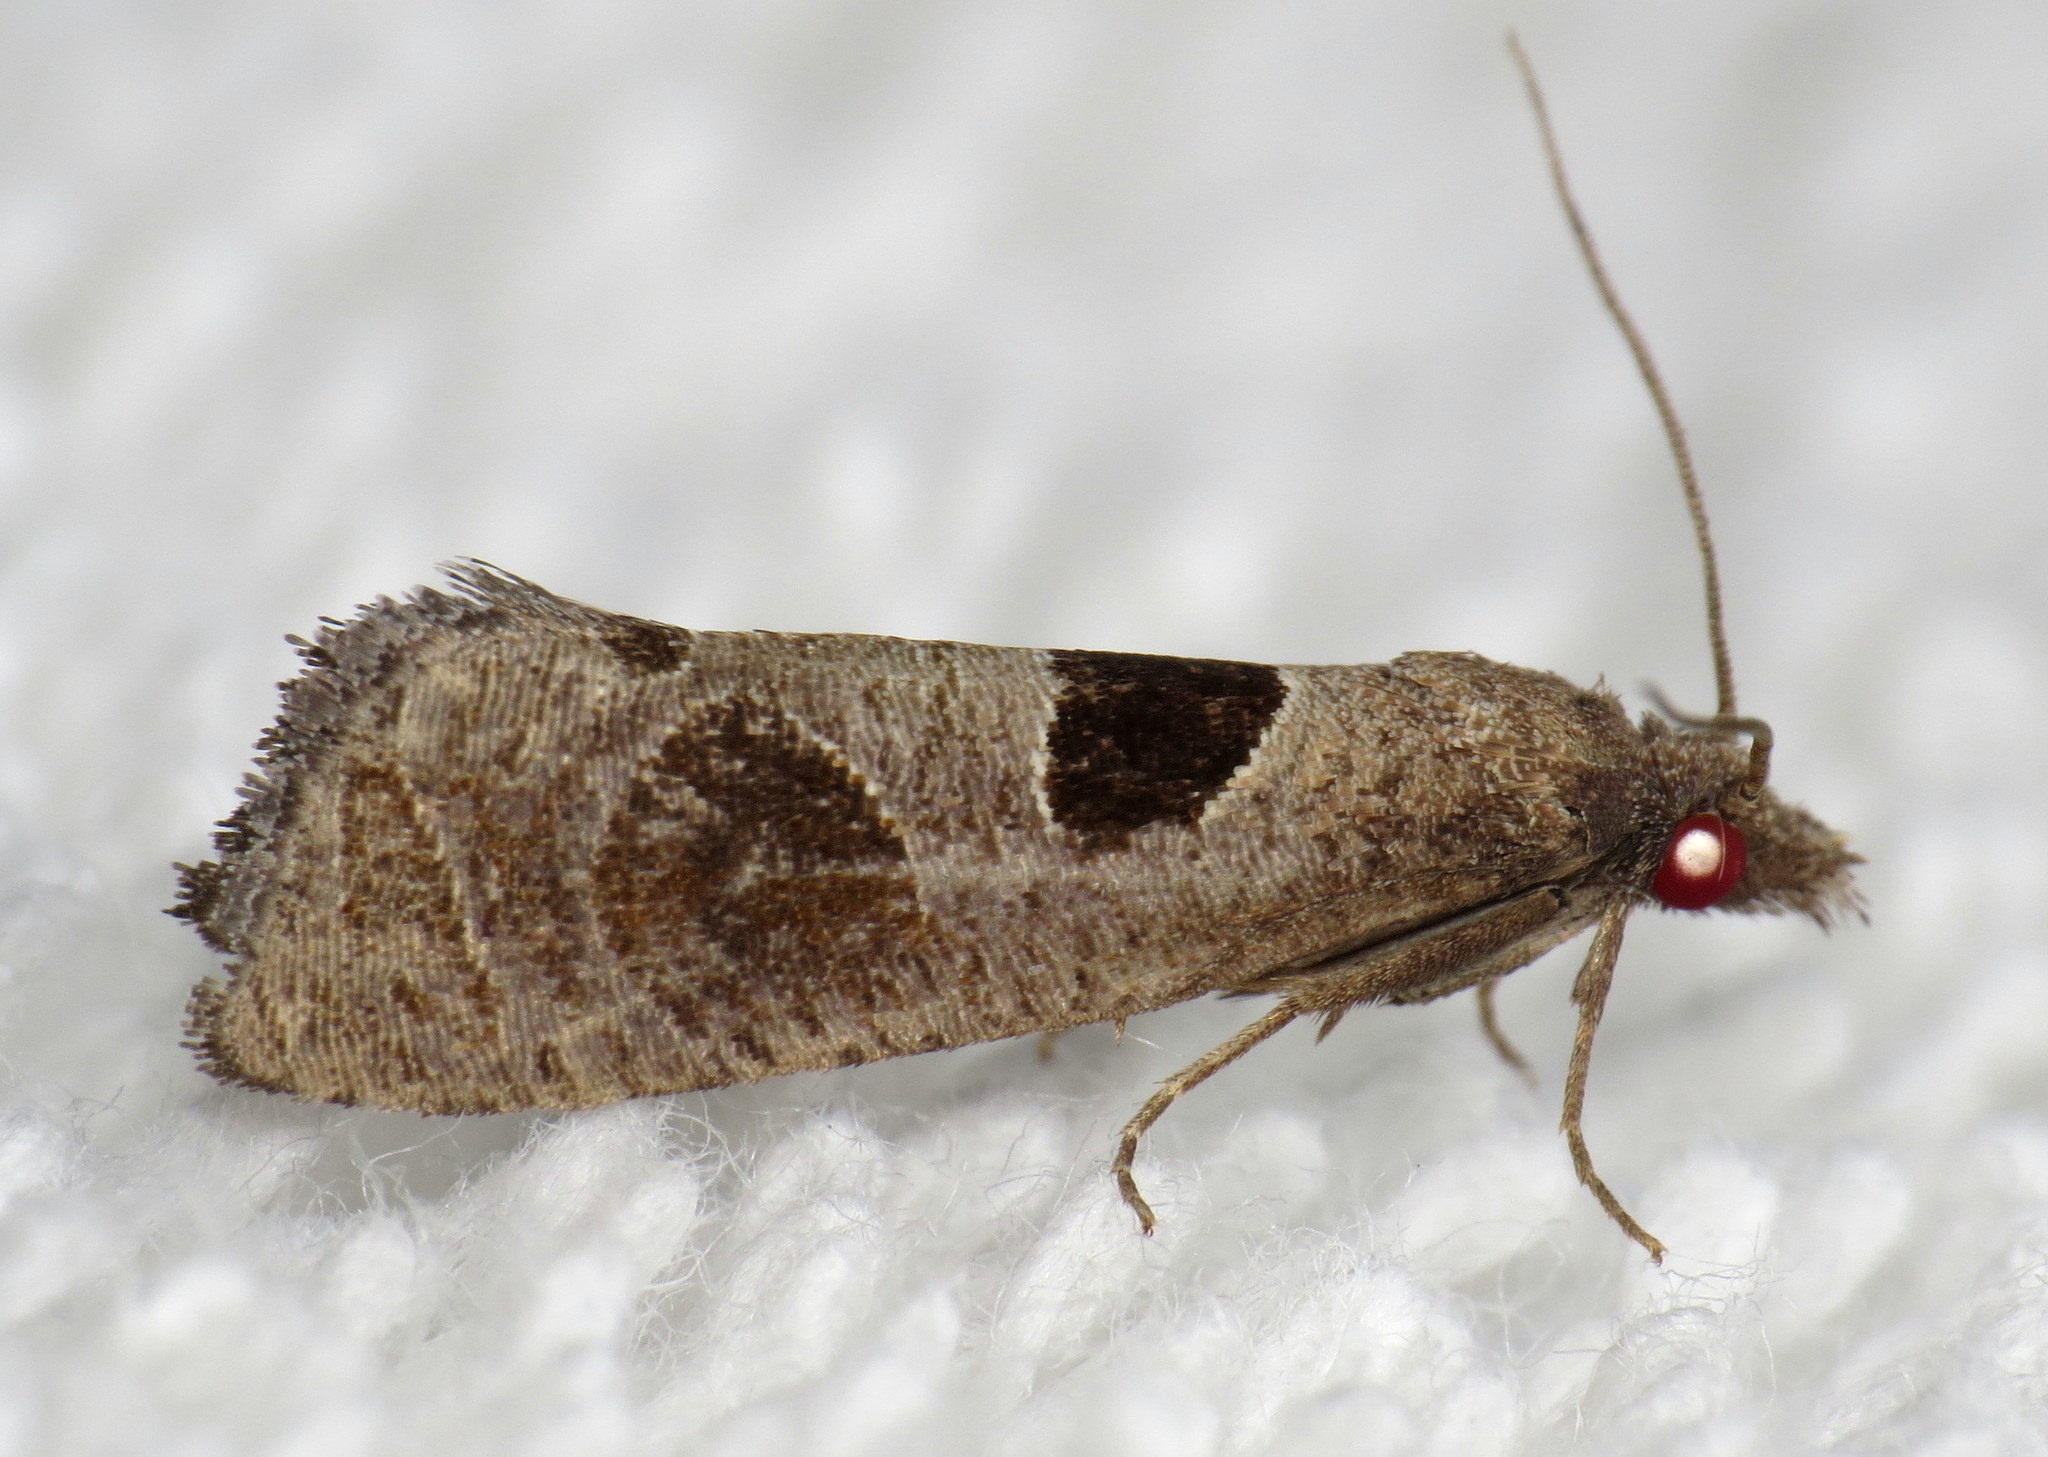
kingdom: Animalia
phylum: Arthropoda
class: Insecta
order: Lepidoptera
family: Tortricidae
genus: Pelochrista
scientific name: Pelochrista dorsisignatana
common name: Triangle-backed pelochrista moth
